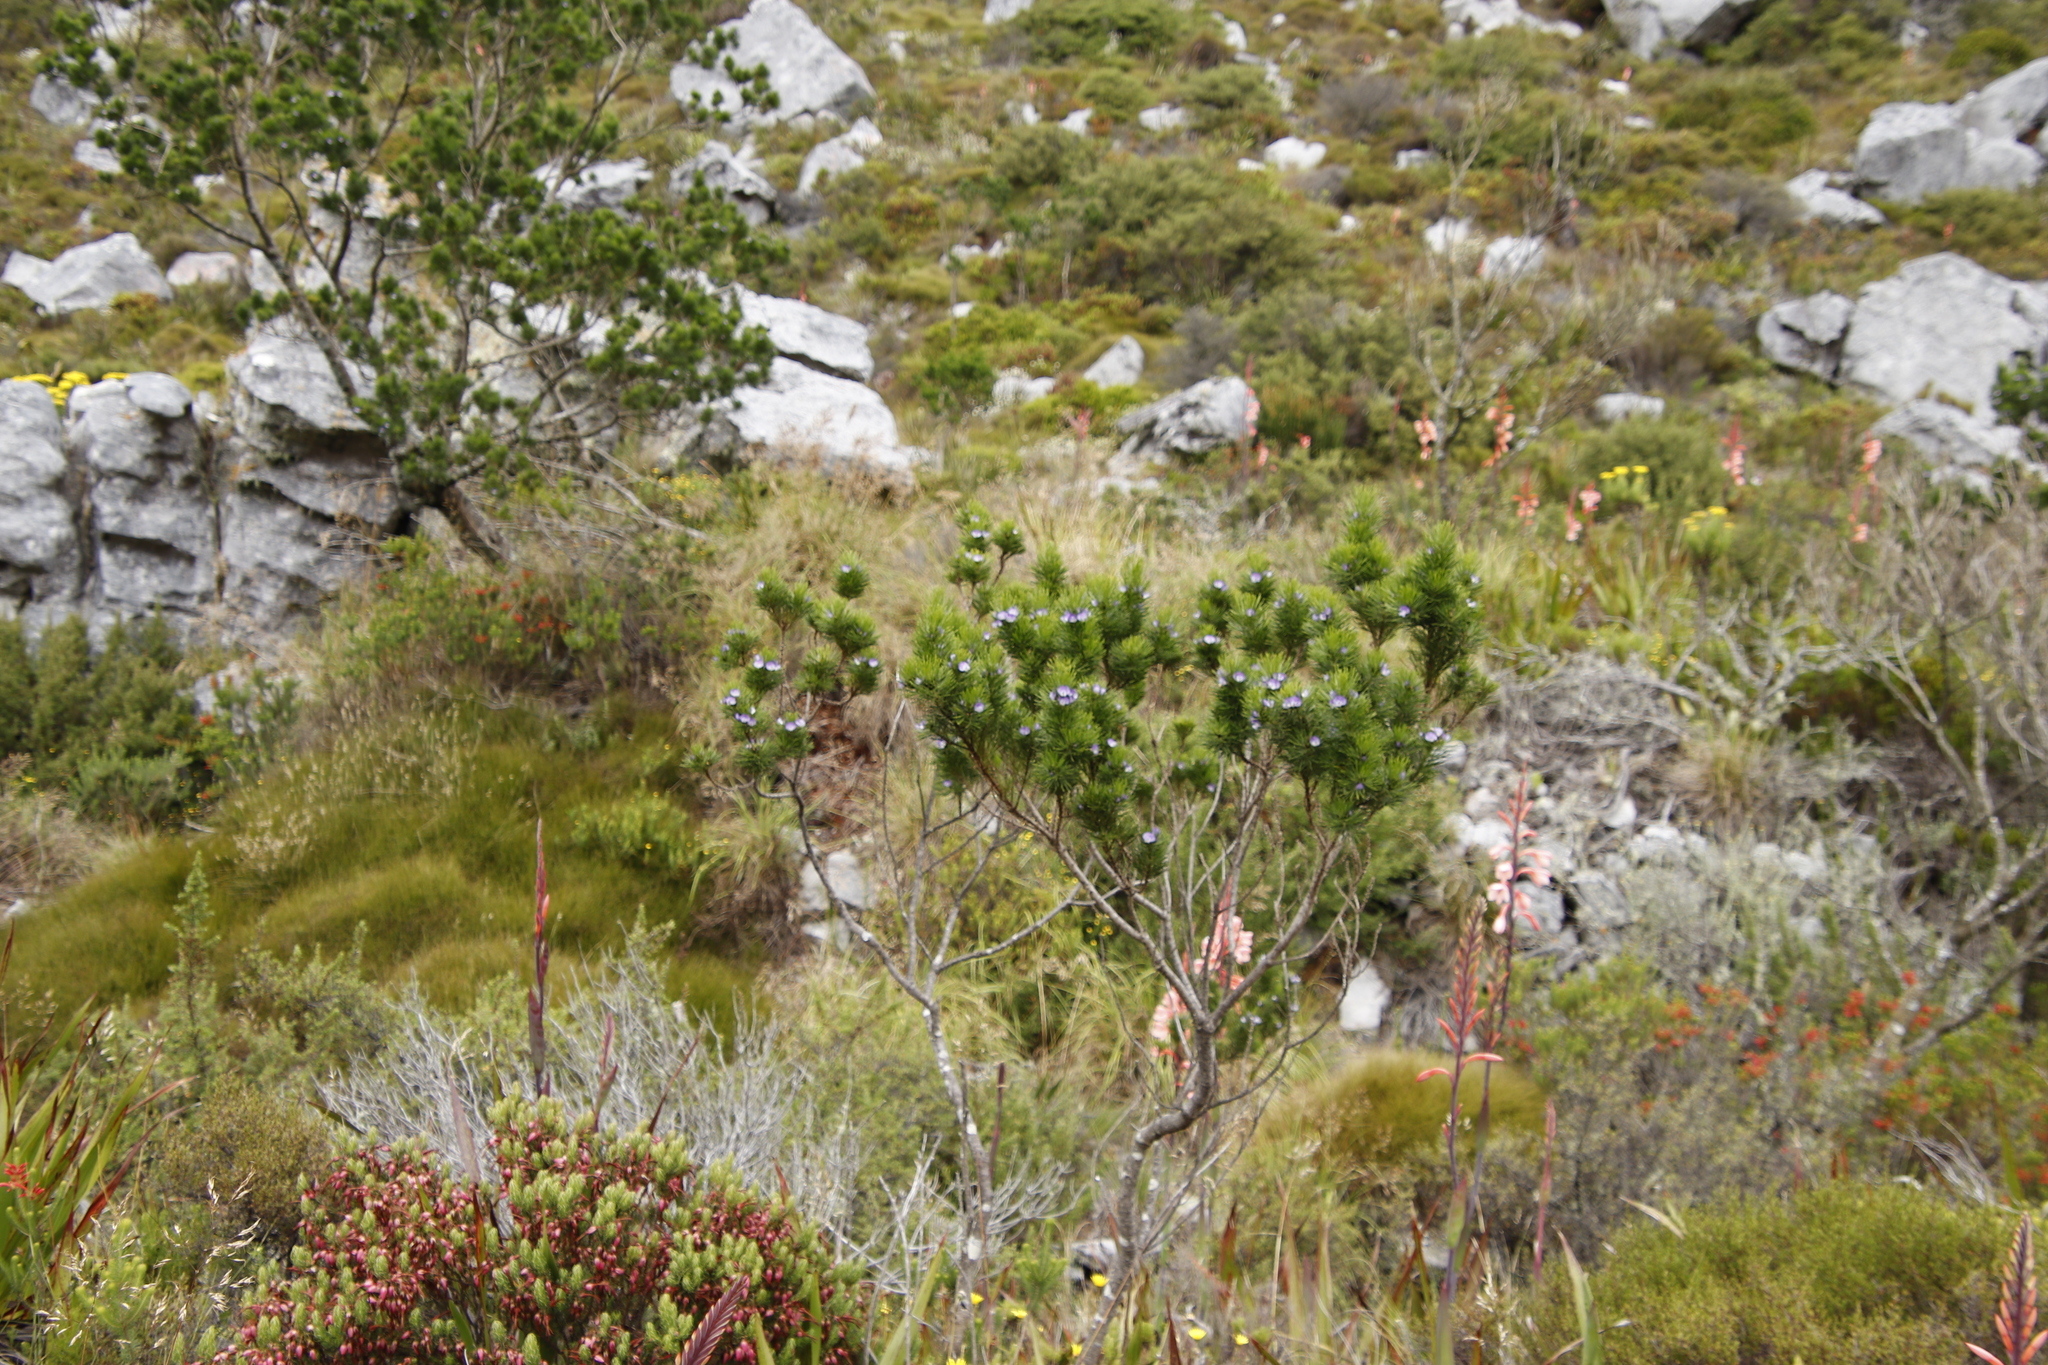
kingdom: Plantae
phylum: Tracheophyta
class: Magnoliopsida
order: Fabales
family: Fabaceae
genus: Psoralea
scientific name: Psoralea pinnata
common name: African scurfpea
